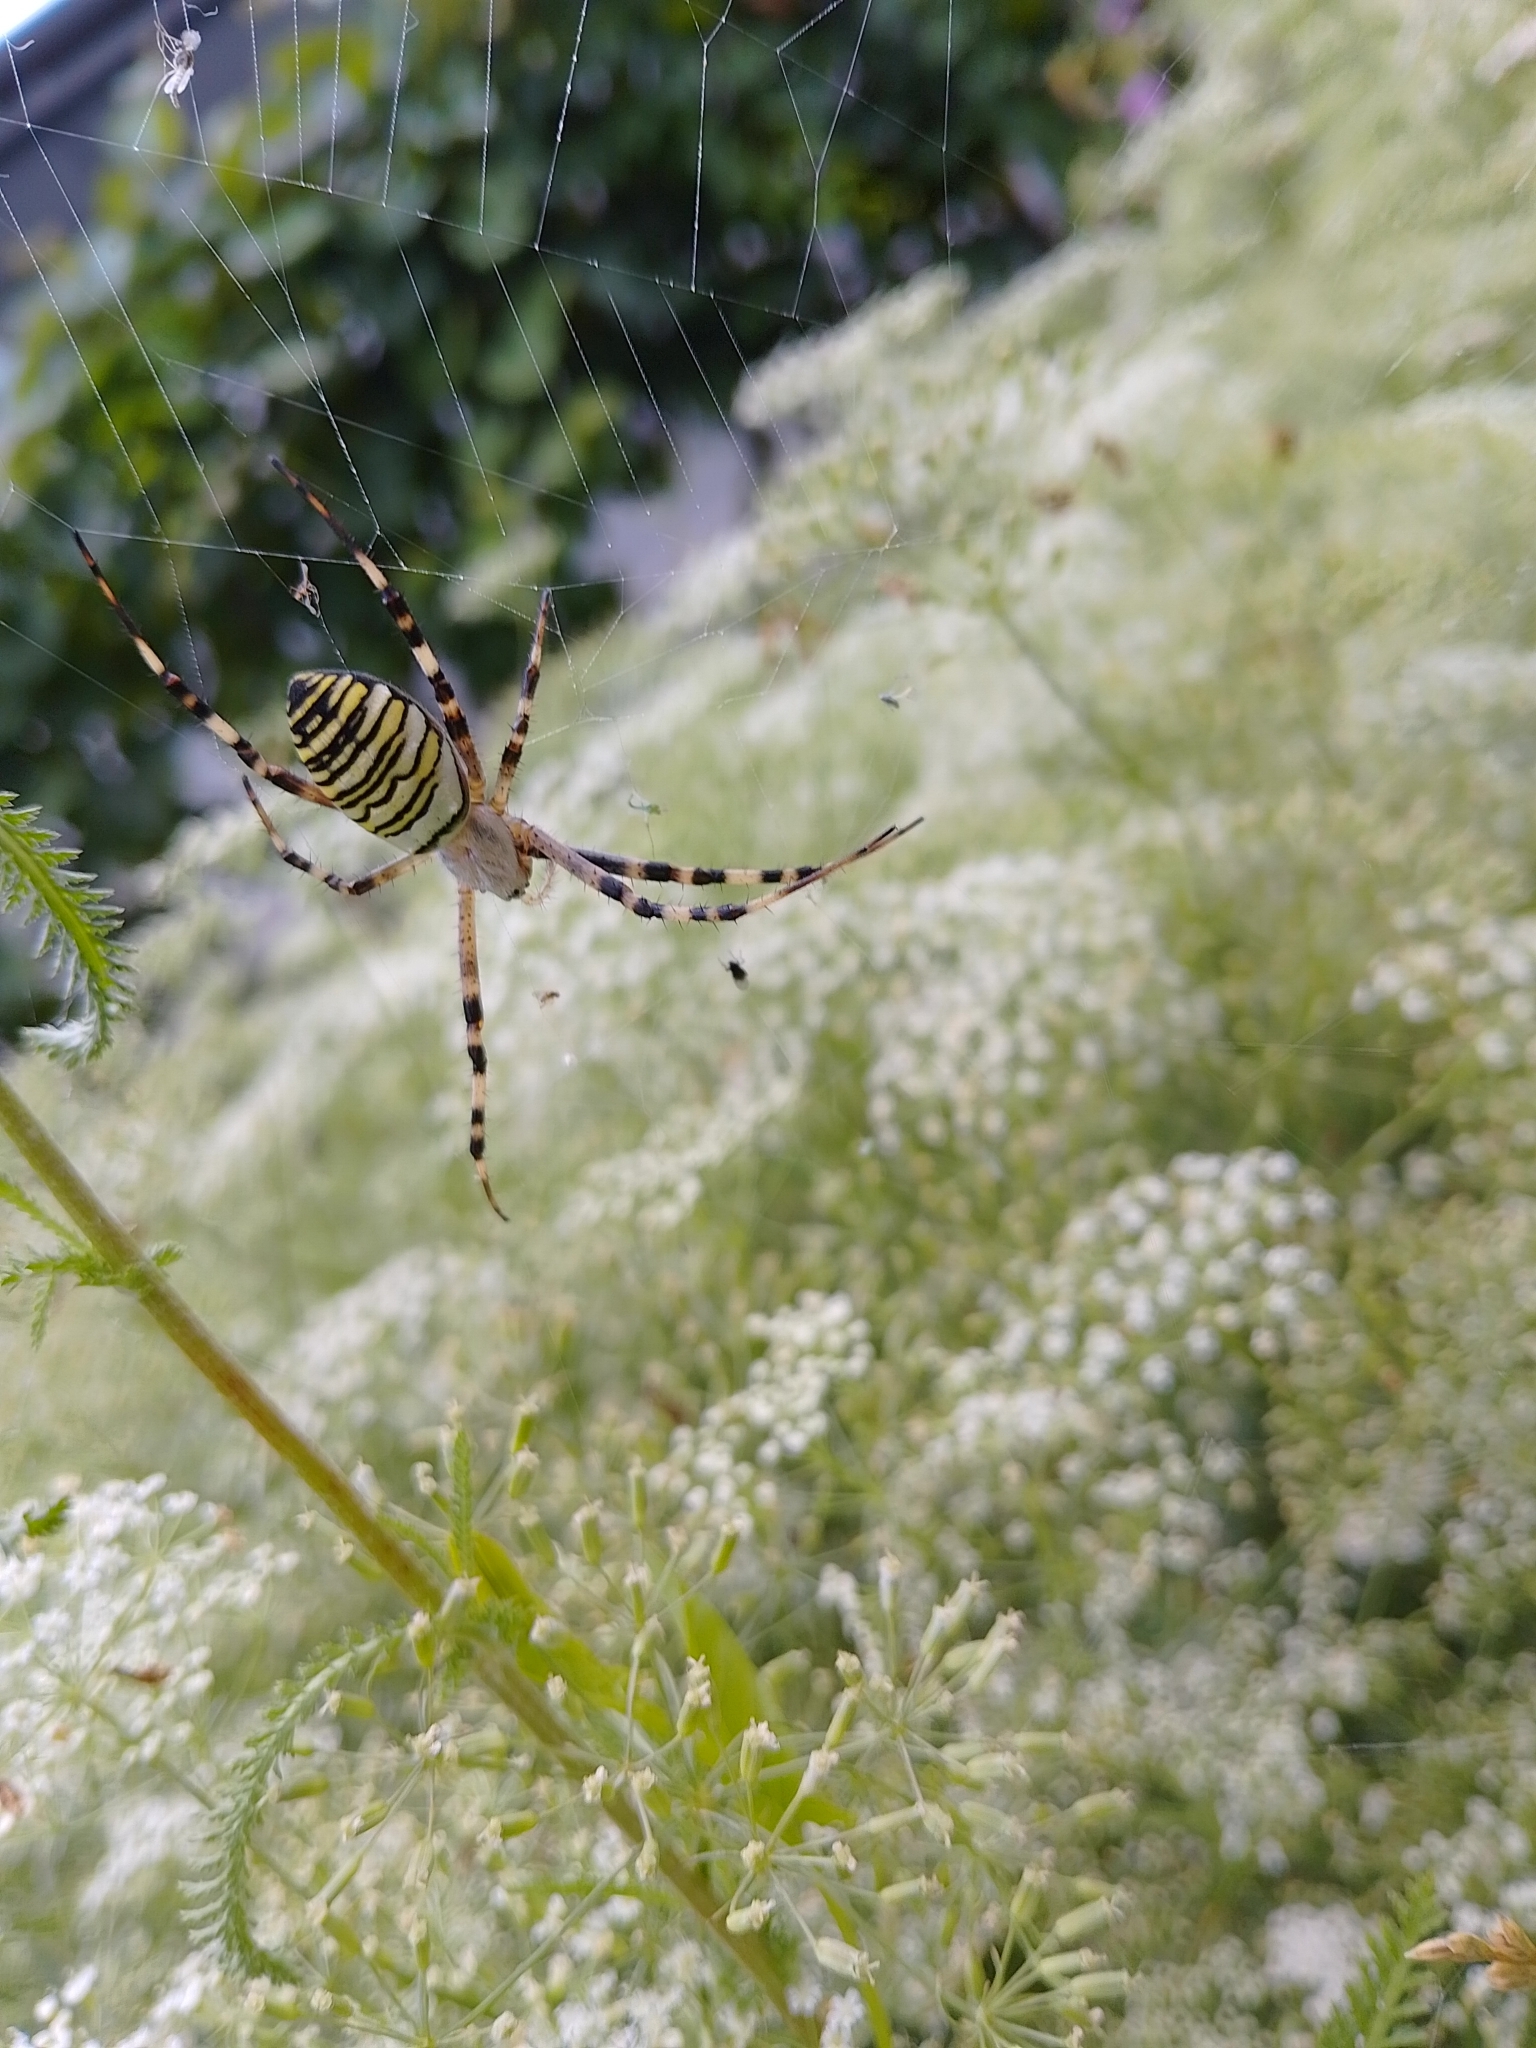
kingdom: Animalia
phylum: Arthropoda
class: Arachnida
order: Araneae
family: Araneidae
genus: Argiope
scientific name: Argiope bruennichi
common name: Wasp spider
